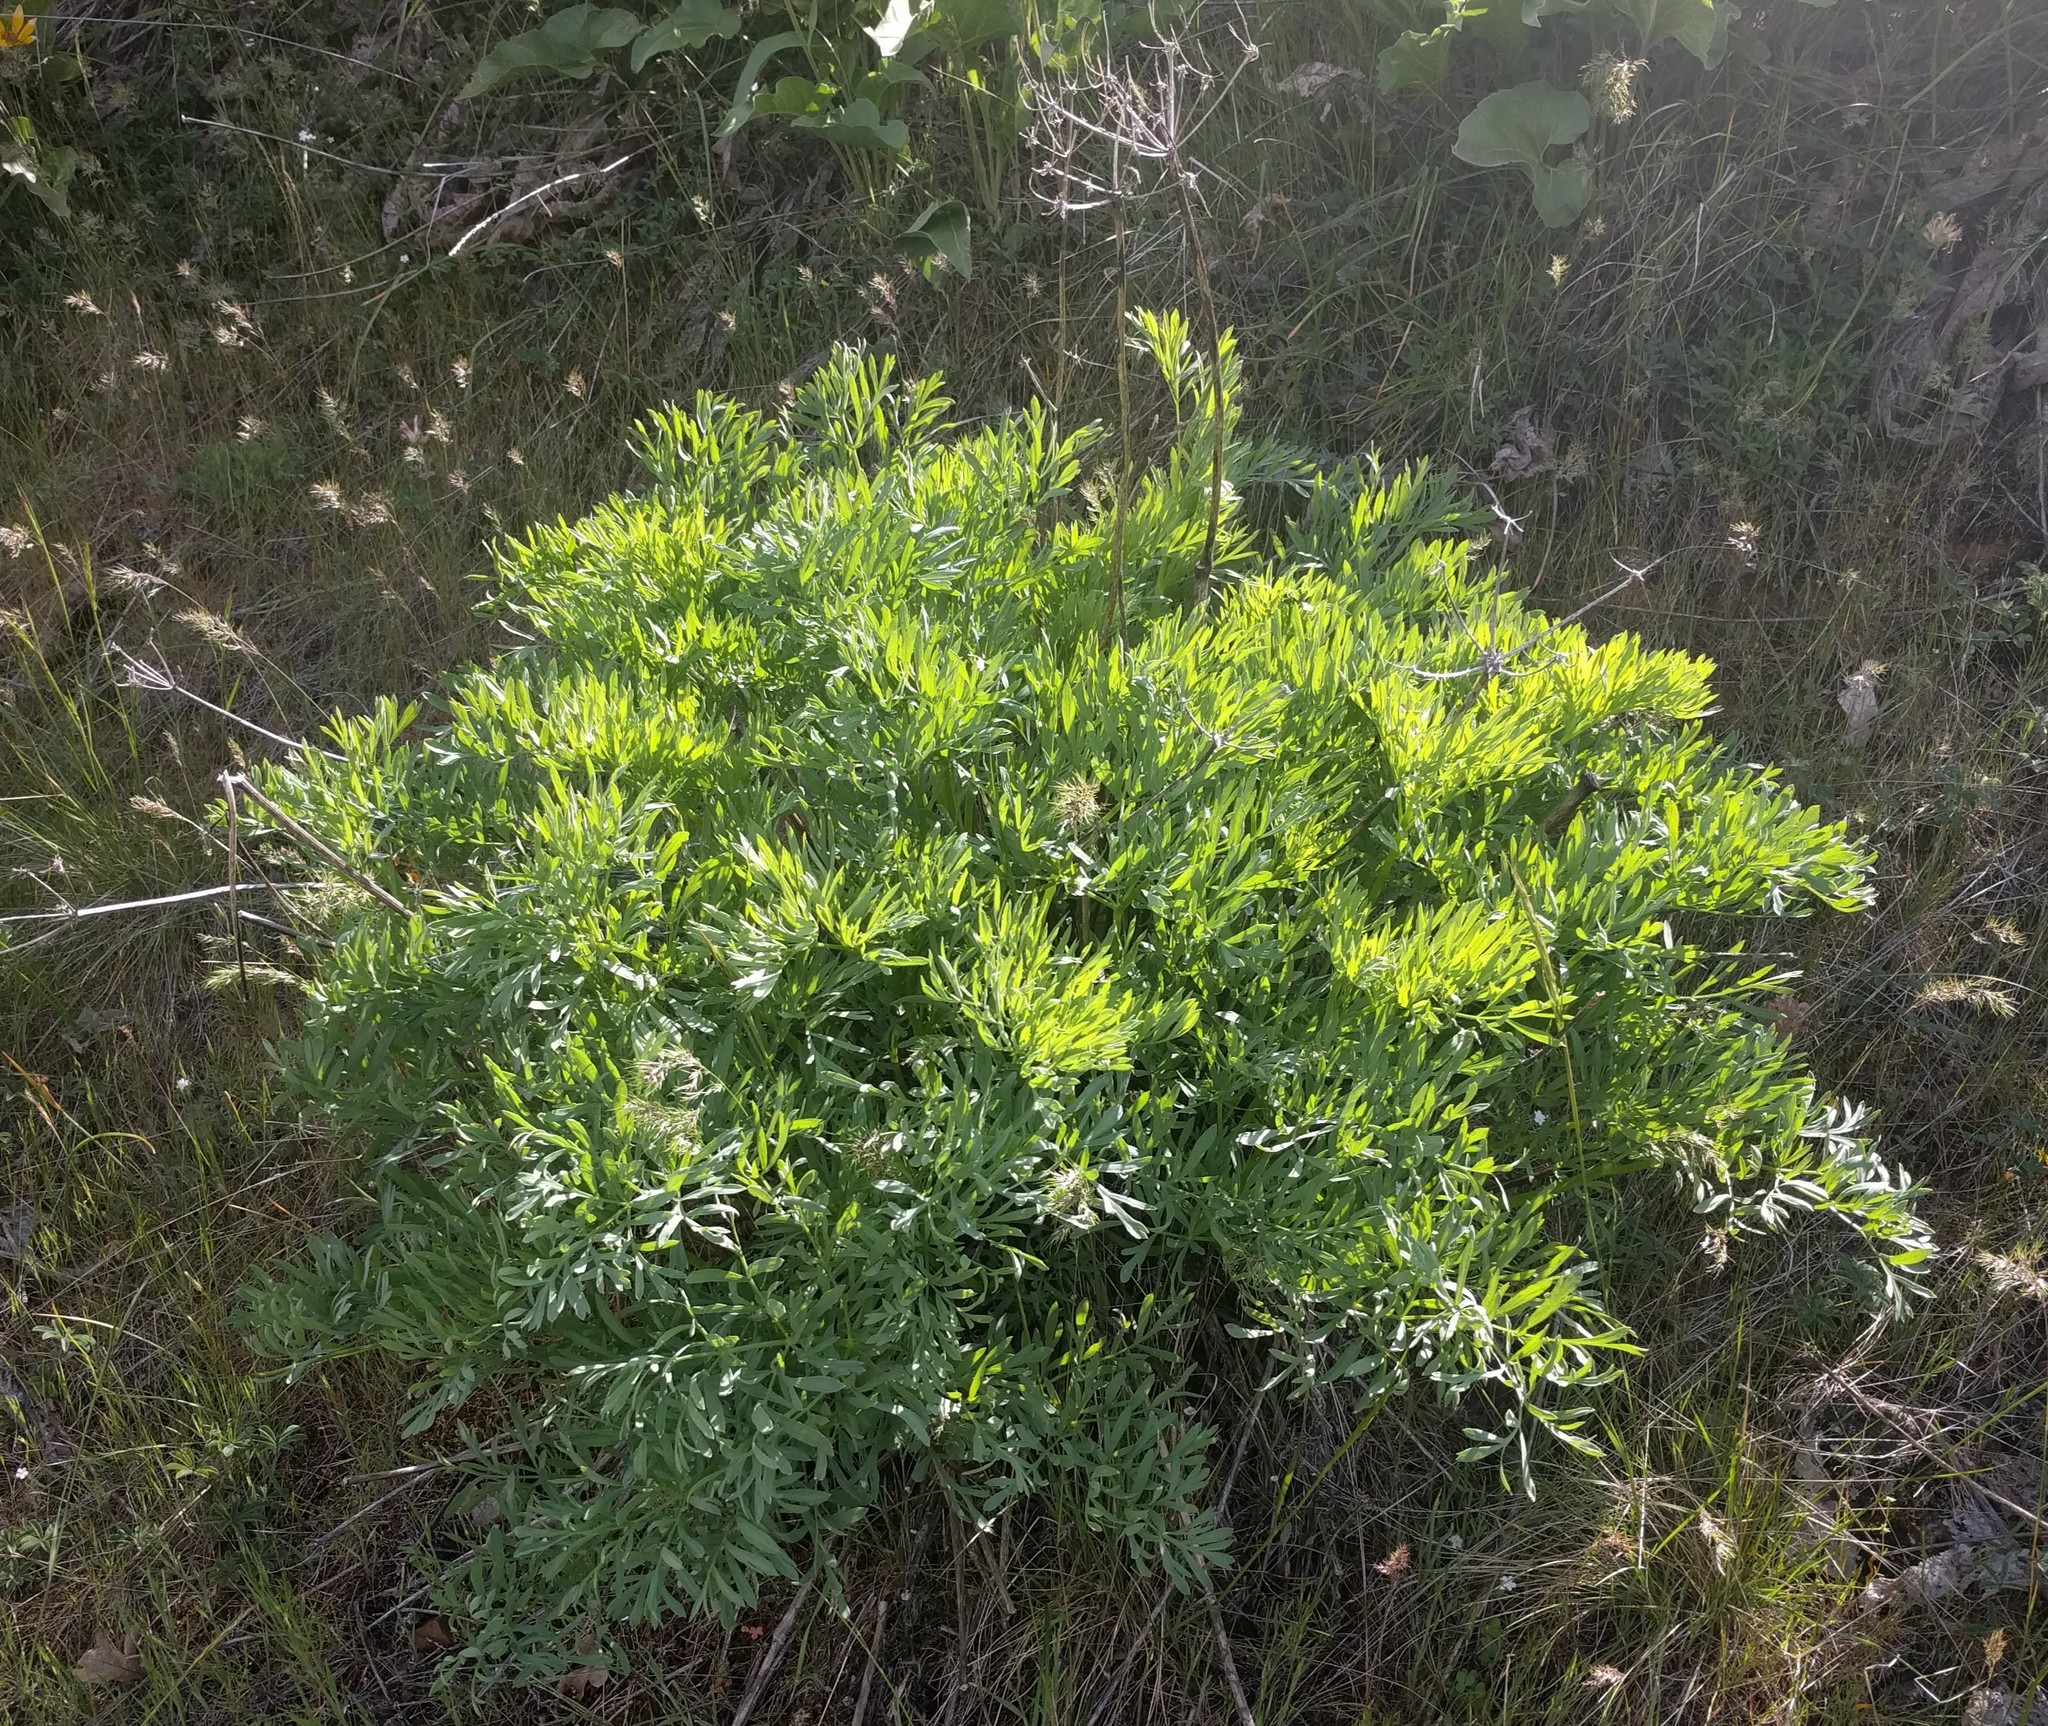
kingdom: Plantae
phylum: Tracheophyta
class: Magnoliopsida
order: Apiales
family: Apiaceae
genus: Lomatium
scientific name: Lomatium suksdorfii
